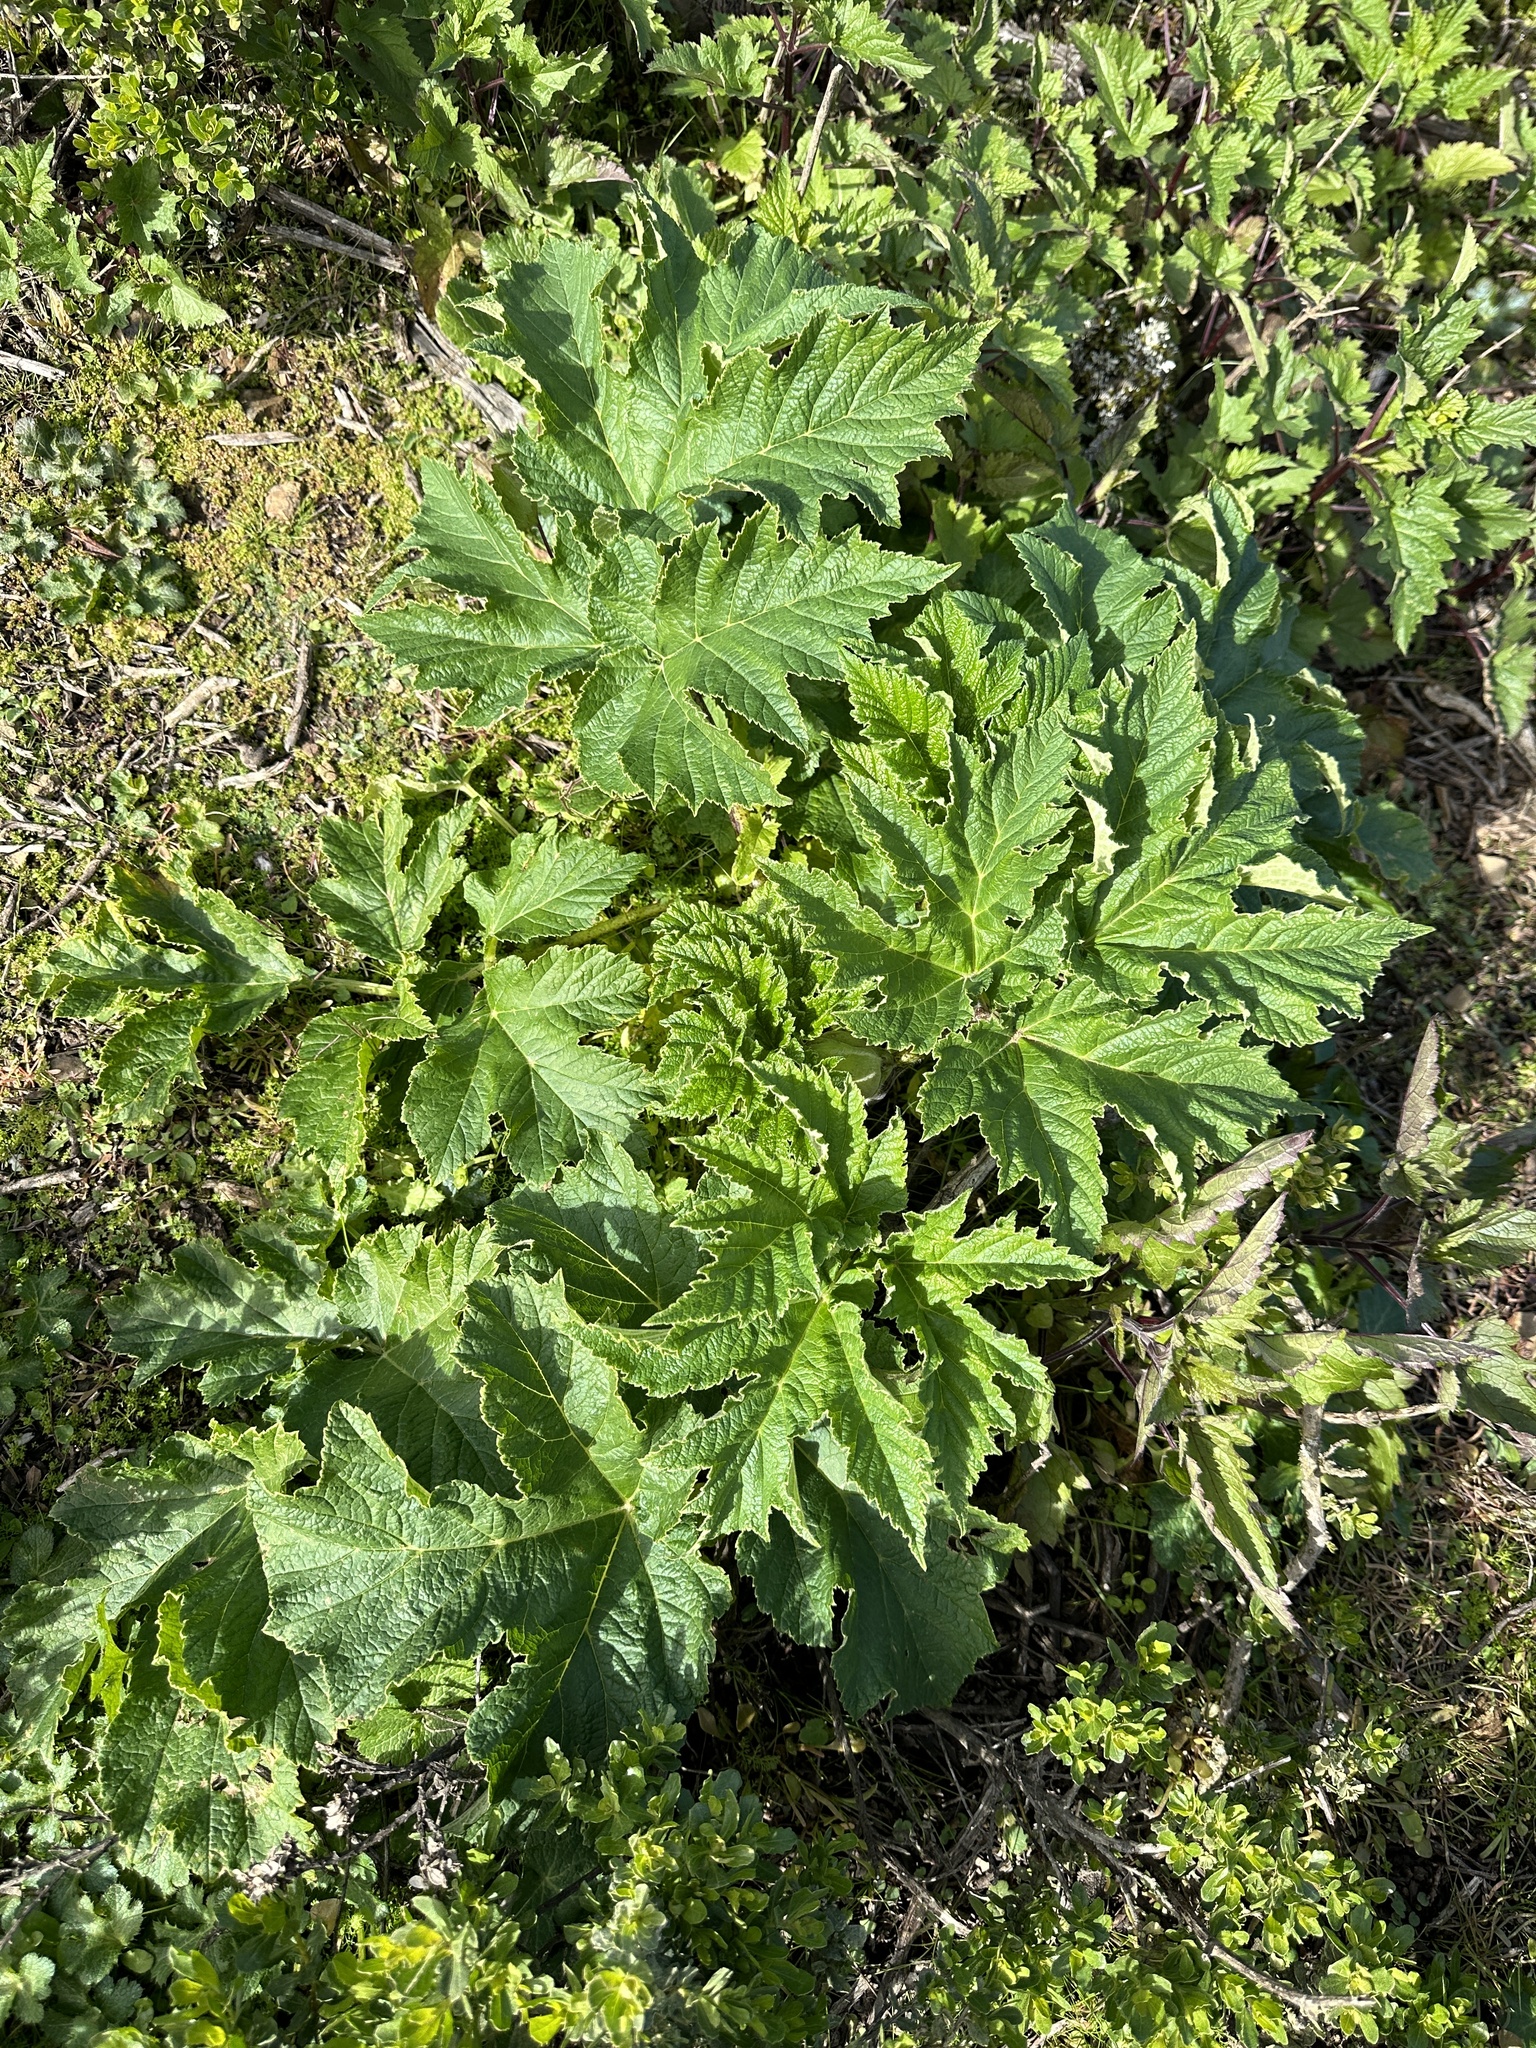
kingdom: Plantae
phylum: Tracheophyta
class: Magnoliopsida
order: Apiales
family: Apiaceae
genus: Heracleum
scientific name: Heracleum maximum
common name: American cow parsnip
